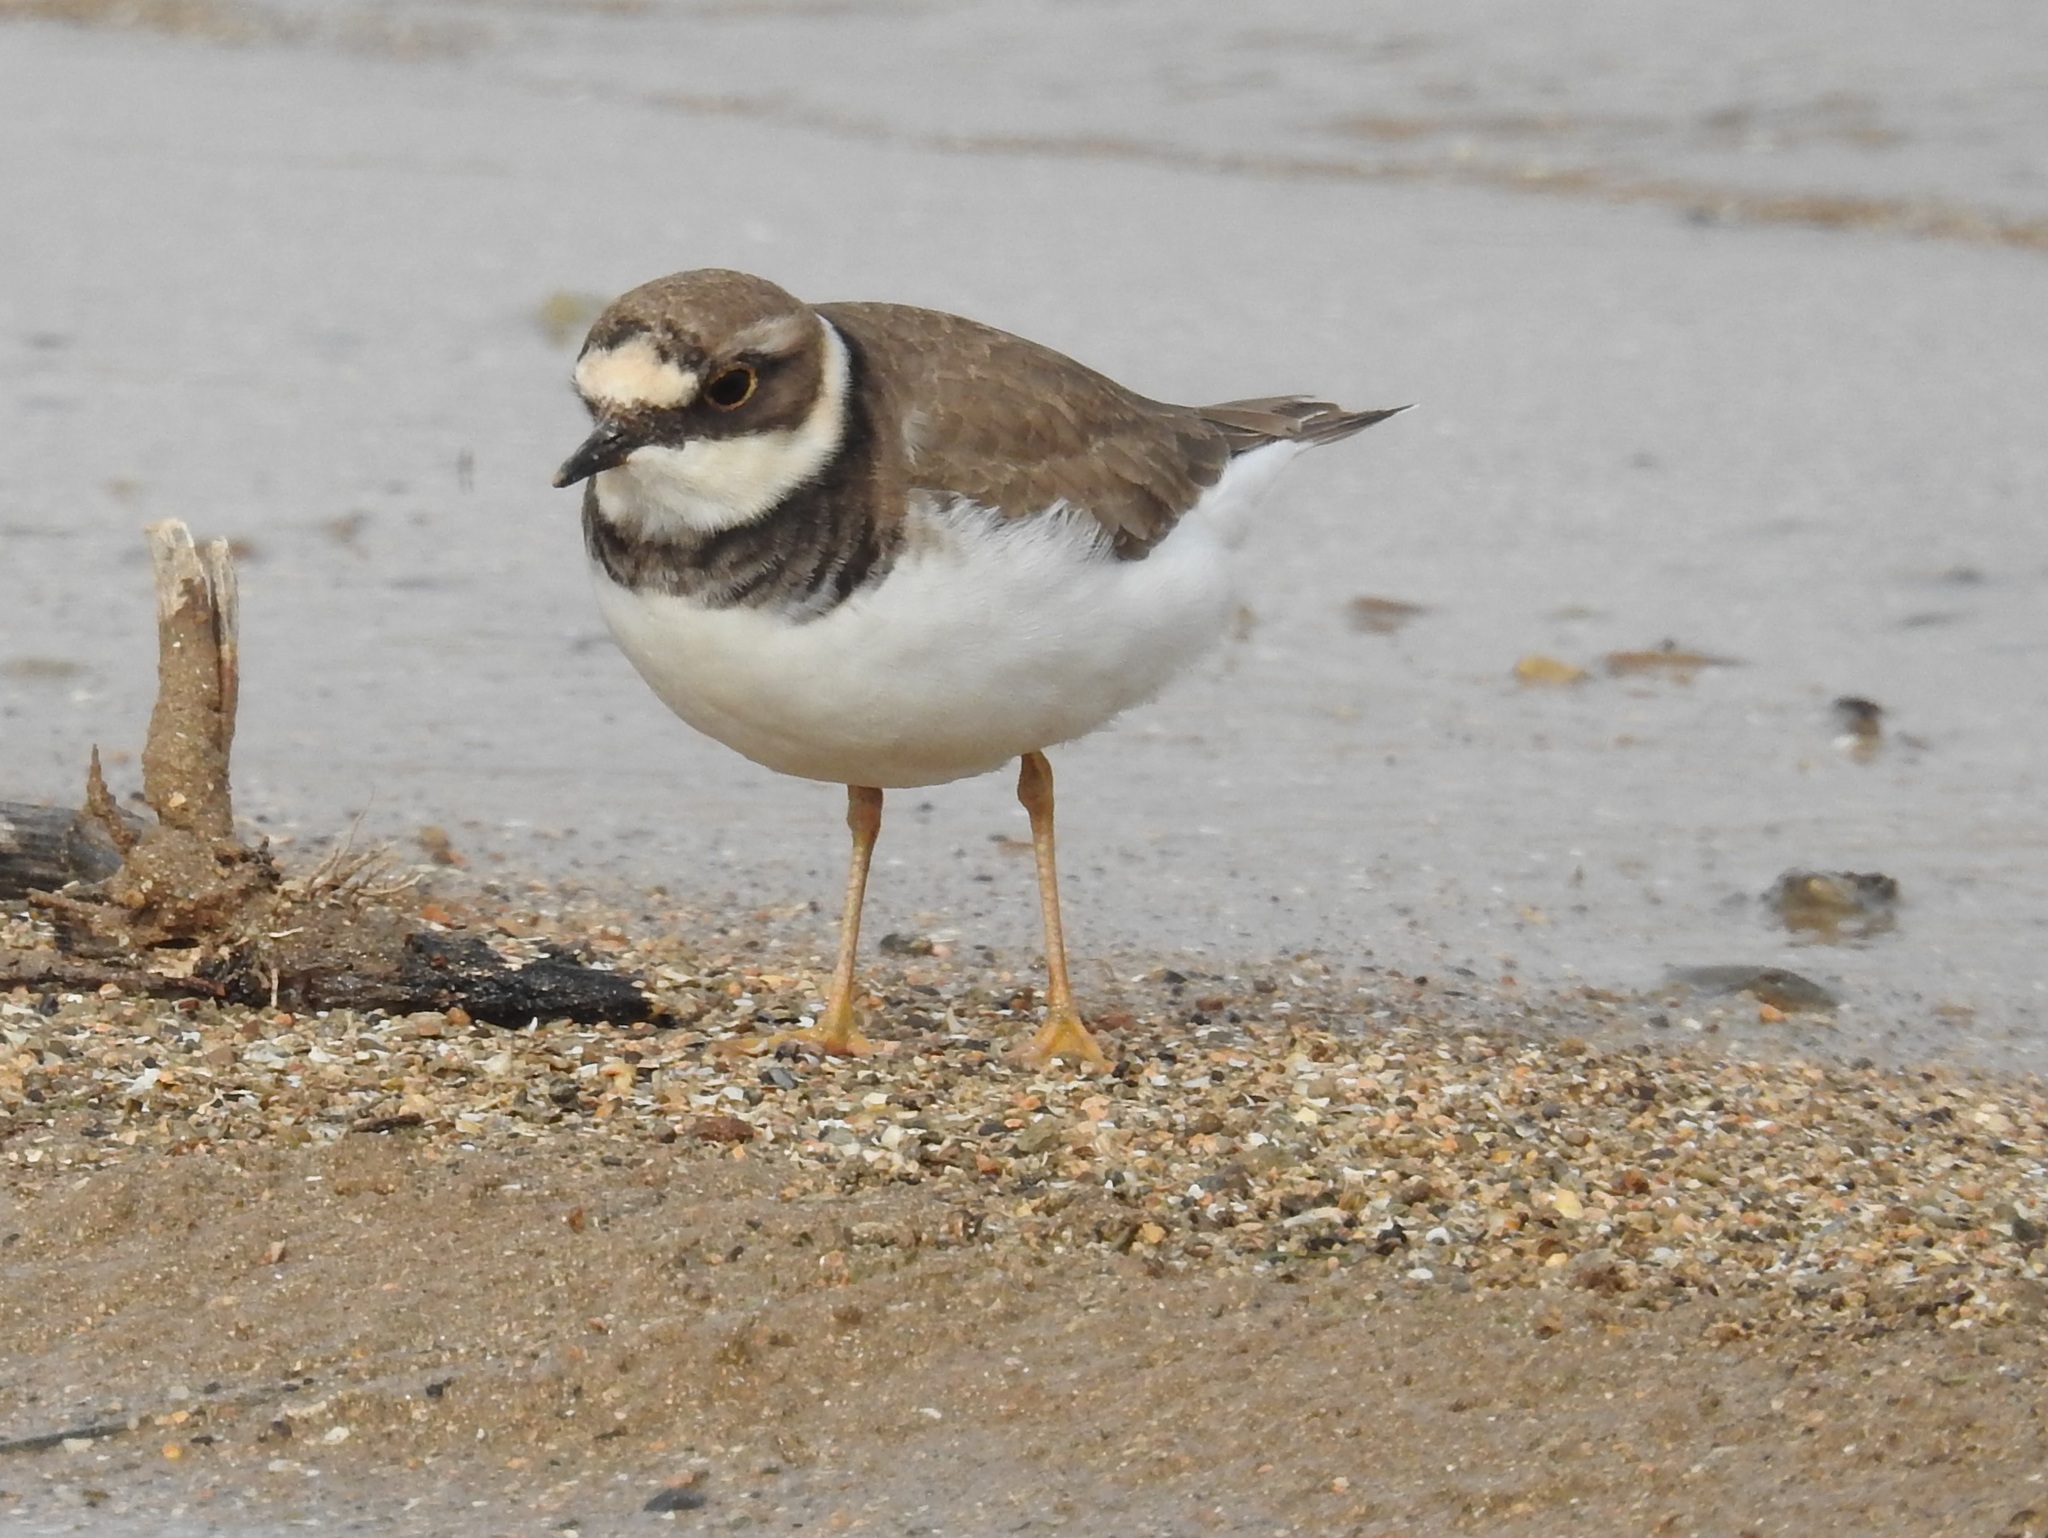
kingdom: Animalia
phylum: Chordata
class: Aves
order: Charadriiformes
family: Charadriidae
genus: Charadrius
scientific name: Charadrius dubius
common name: Little ringed plover
